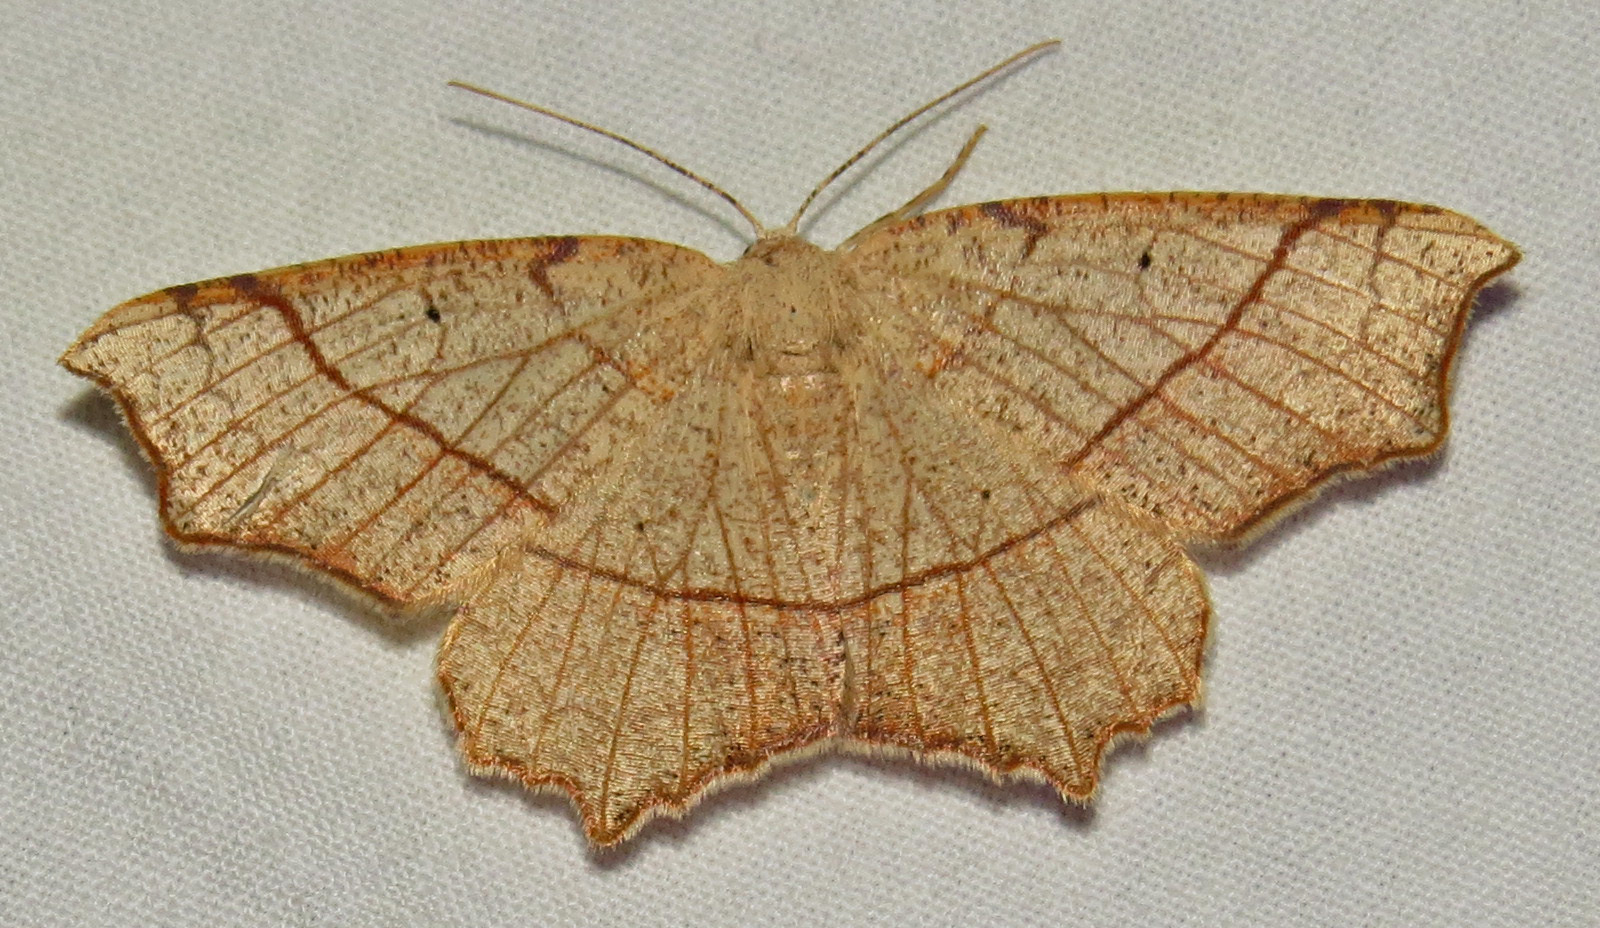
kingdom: Animalia
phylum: Arthropoda
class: Insecta
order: Lepidoptera
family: Geometridae
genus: Besma
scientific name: Besma quercivoraria
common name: Oak besma
